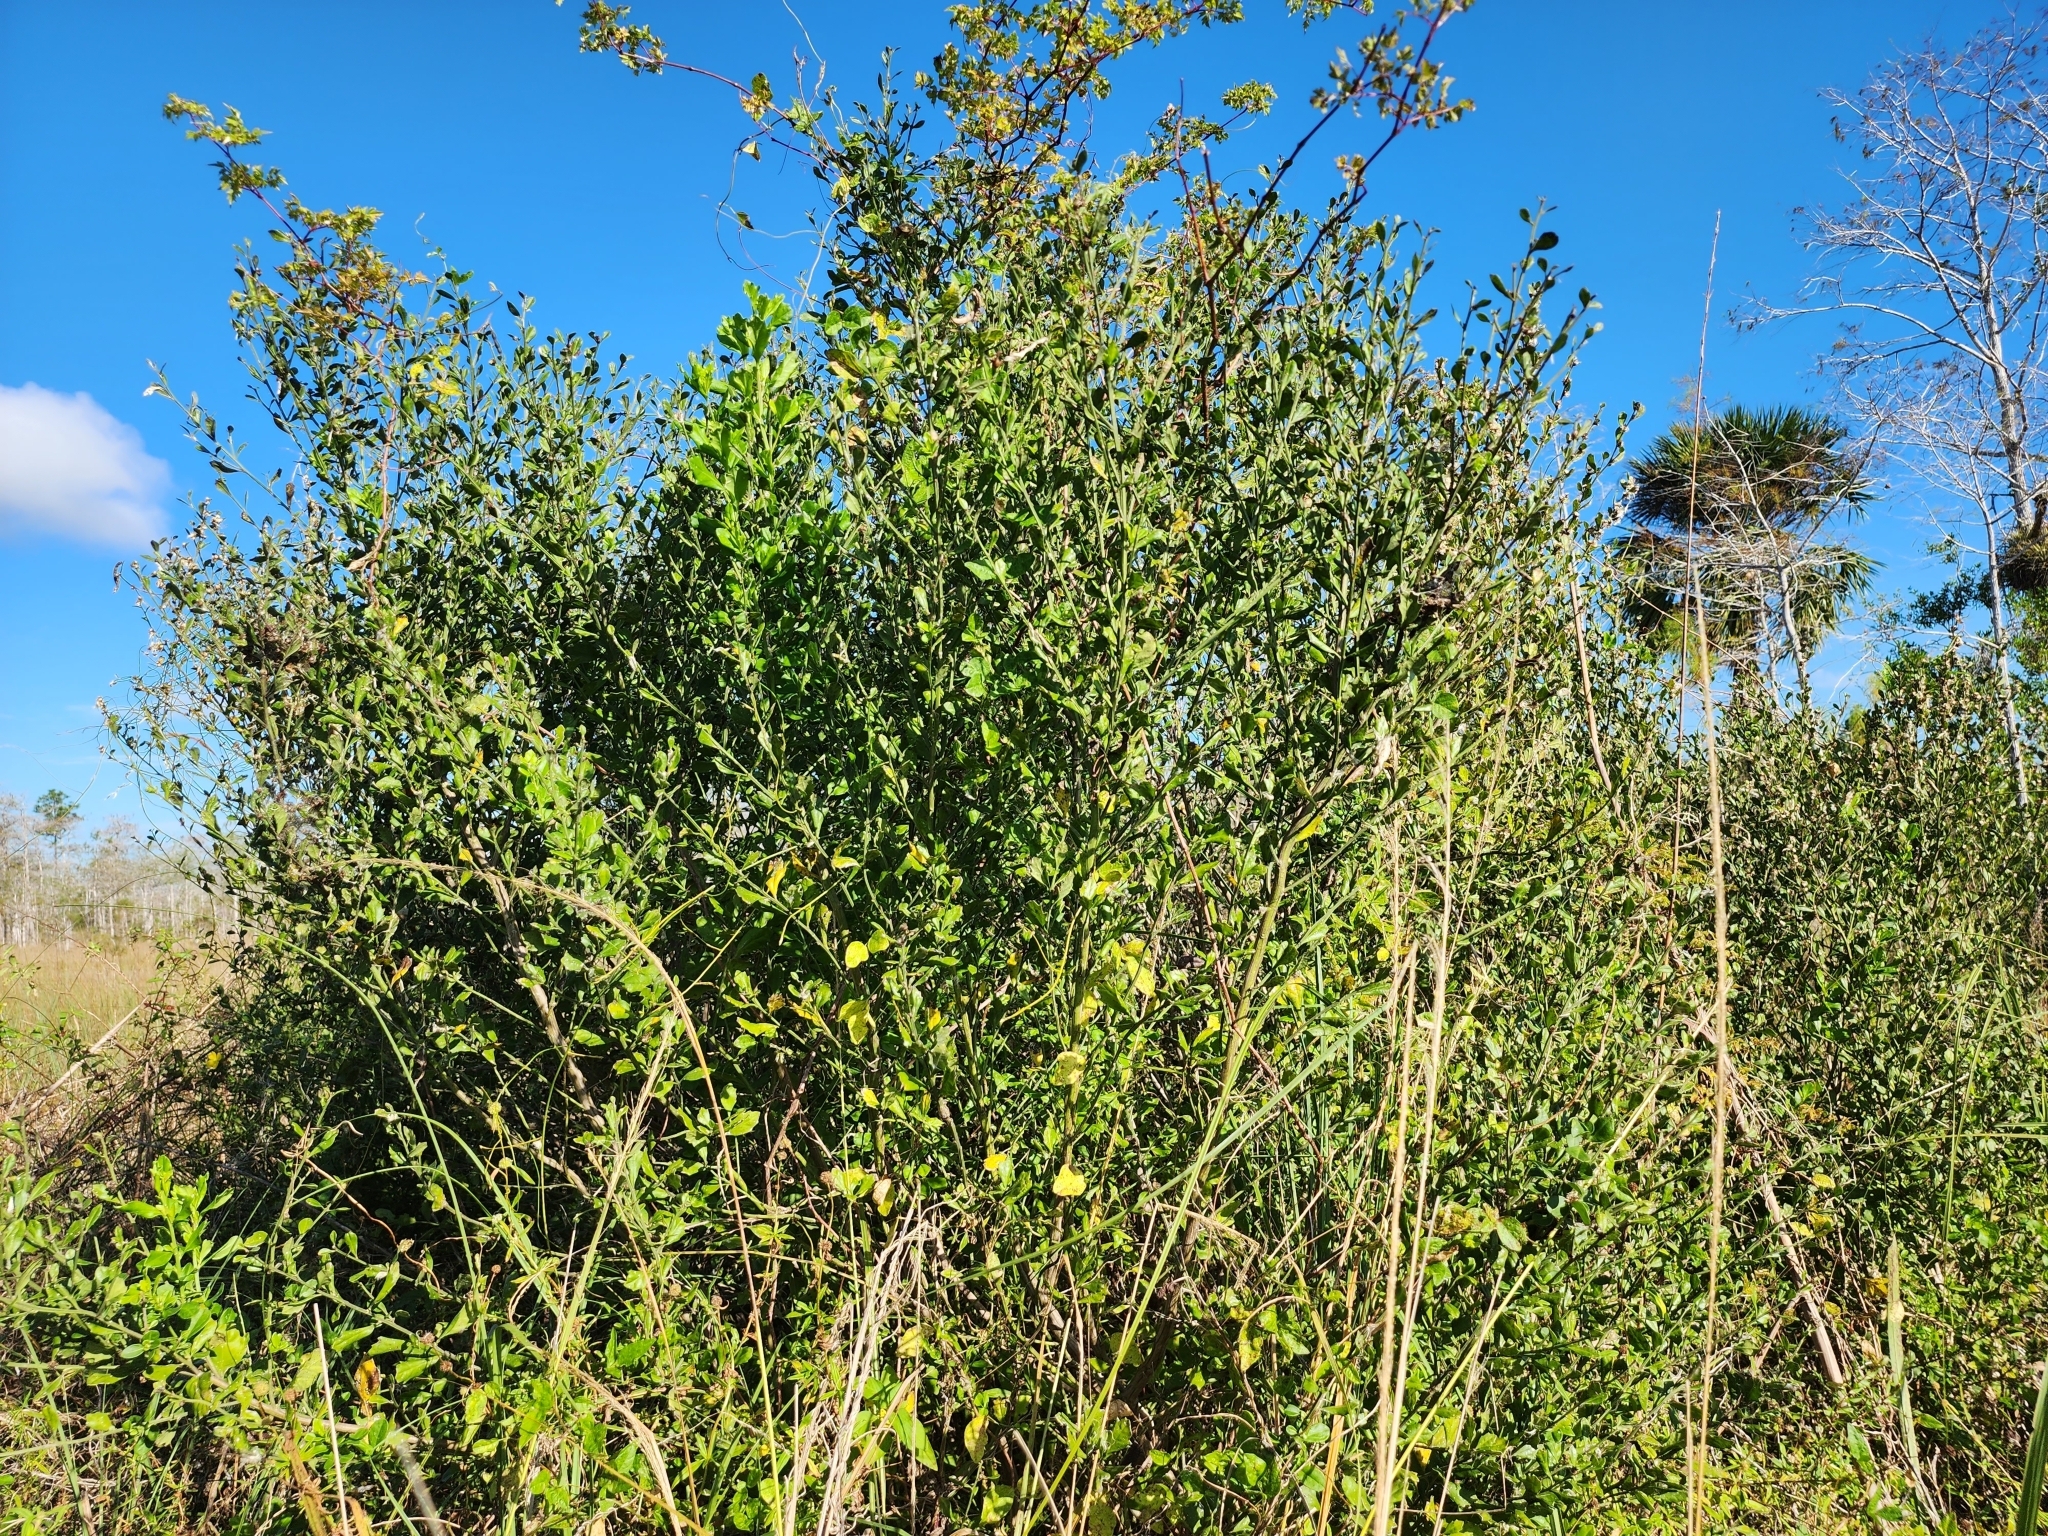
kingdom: Plantae
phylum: Tracheophyta
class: Magnoliopsida
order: Asterales
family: Asteraceae
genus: Baccharis
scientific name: Baccharis glomeruliflora
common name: Silverling groundsel bush
